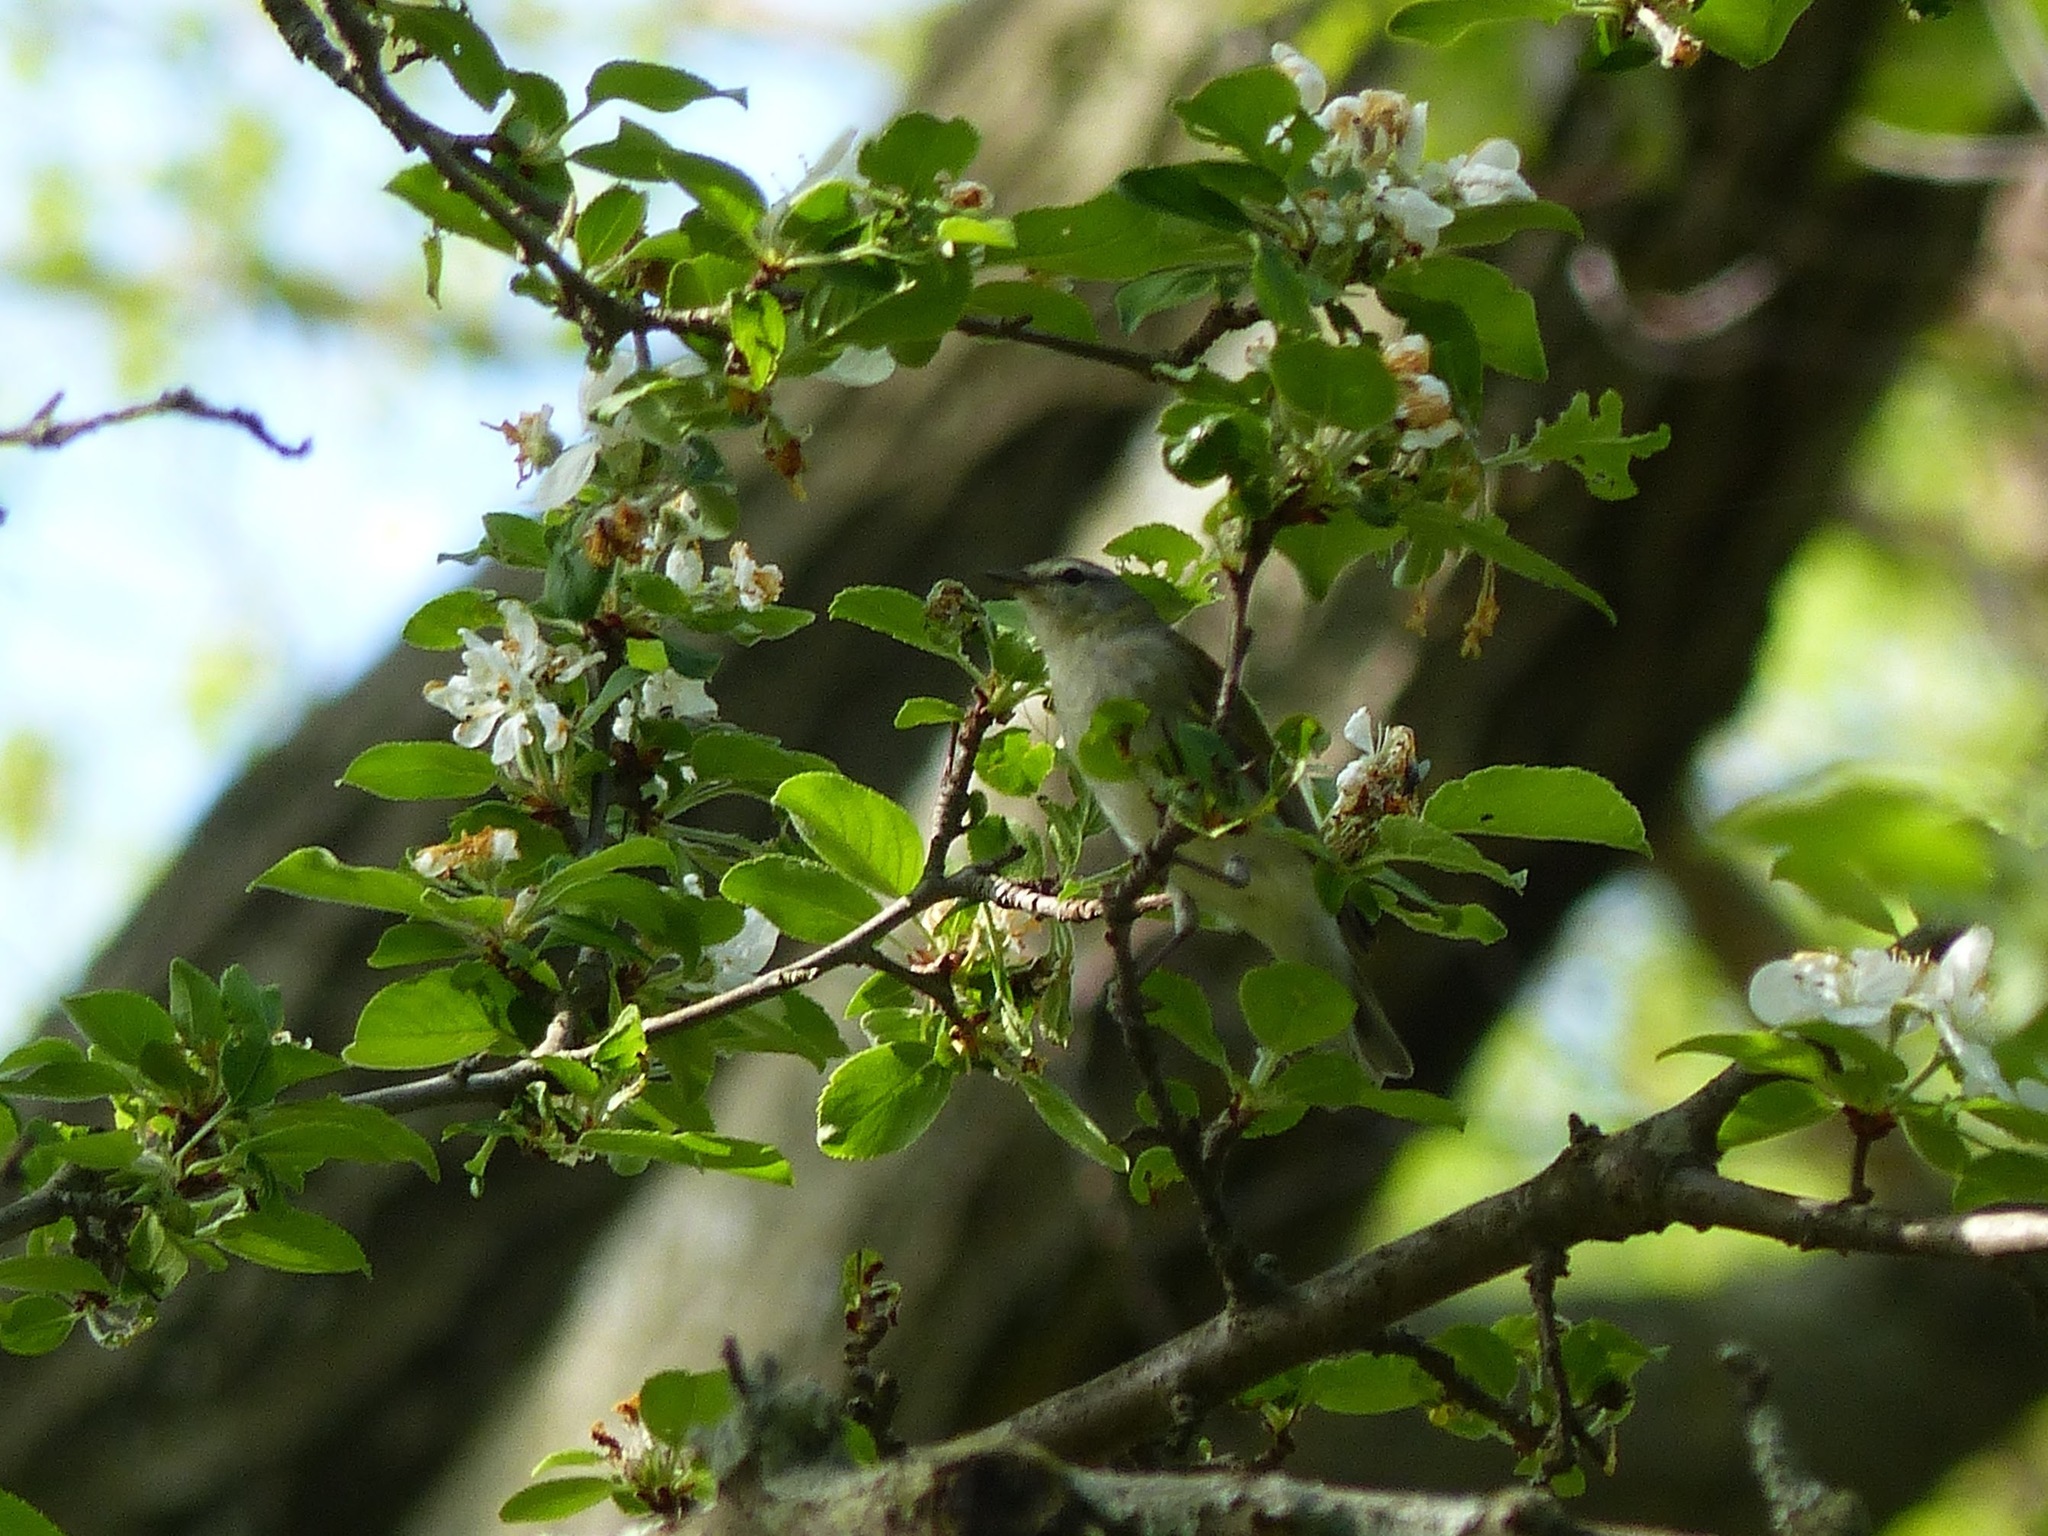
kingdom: Animalia
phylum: Chordata
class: Aves
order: Passeriformes
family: Parulidae
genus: Leiothlypis
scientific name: Leiothlypis peregrina
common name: Tennessee warbler
